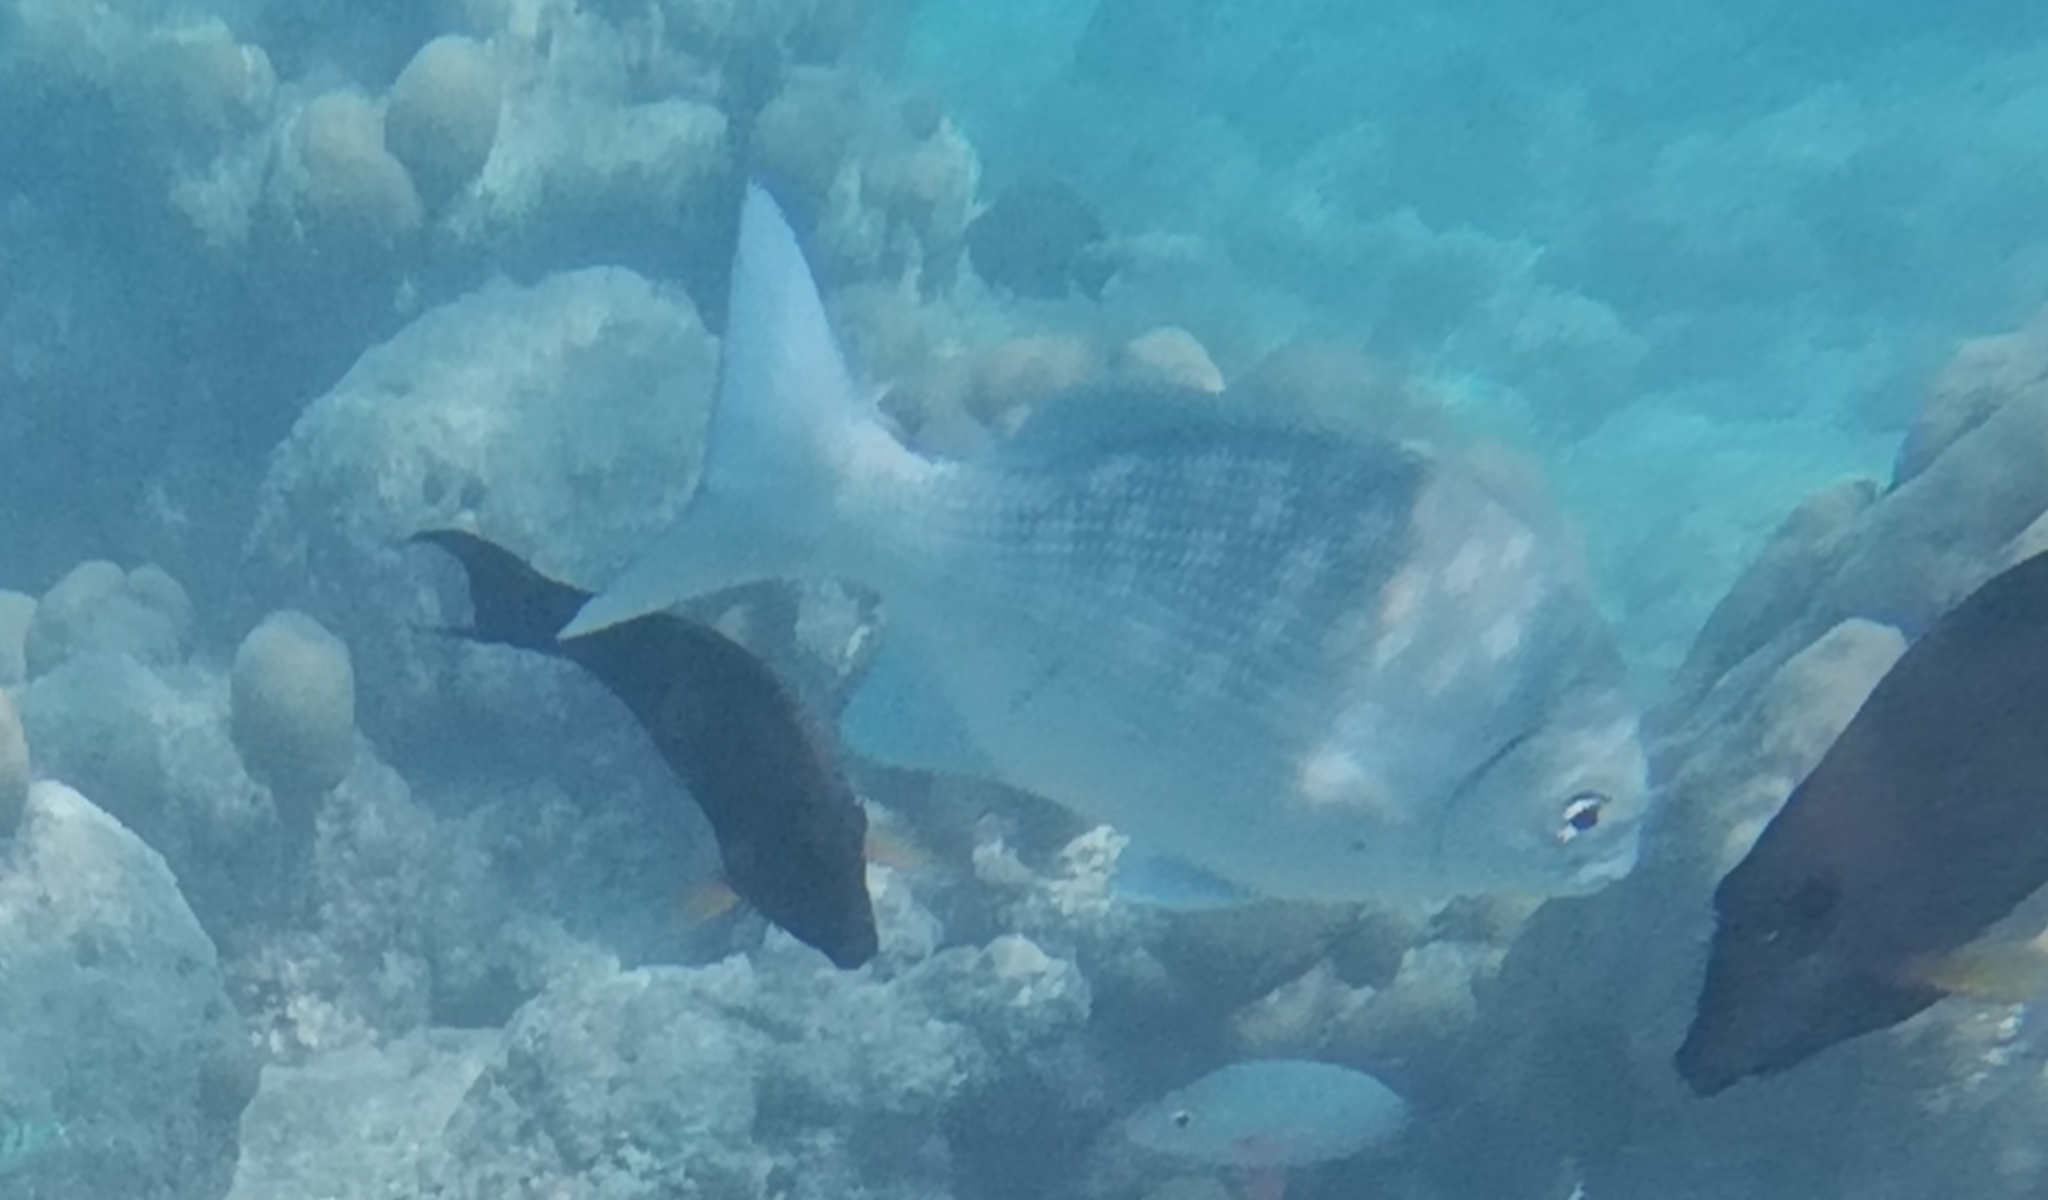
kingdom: Animalia
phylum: Chordata
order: Perciformes
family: Kyphosidae
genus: Kyphosus
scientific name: Kyphosus cinerascens
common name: Topsail drummer
